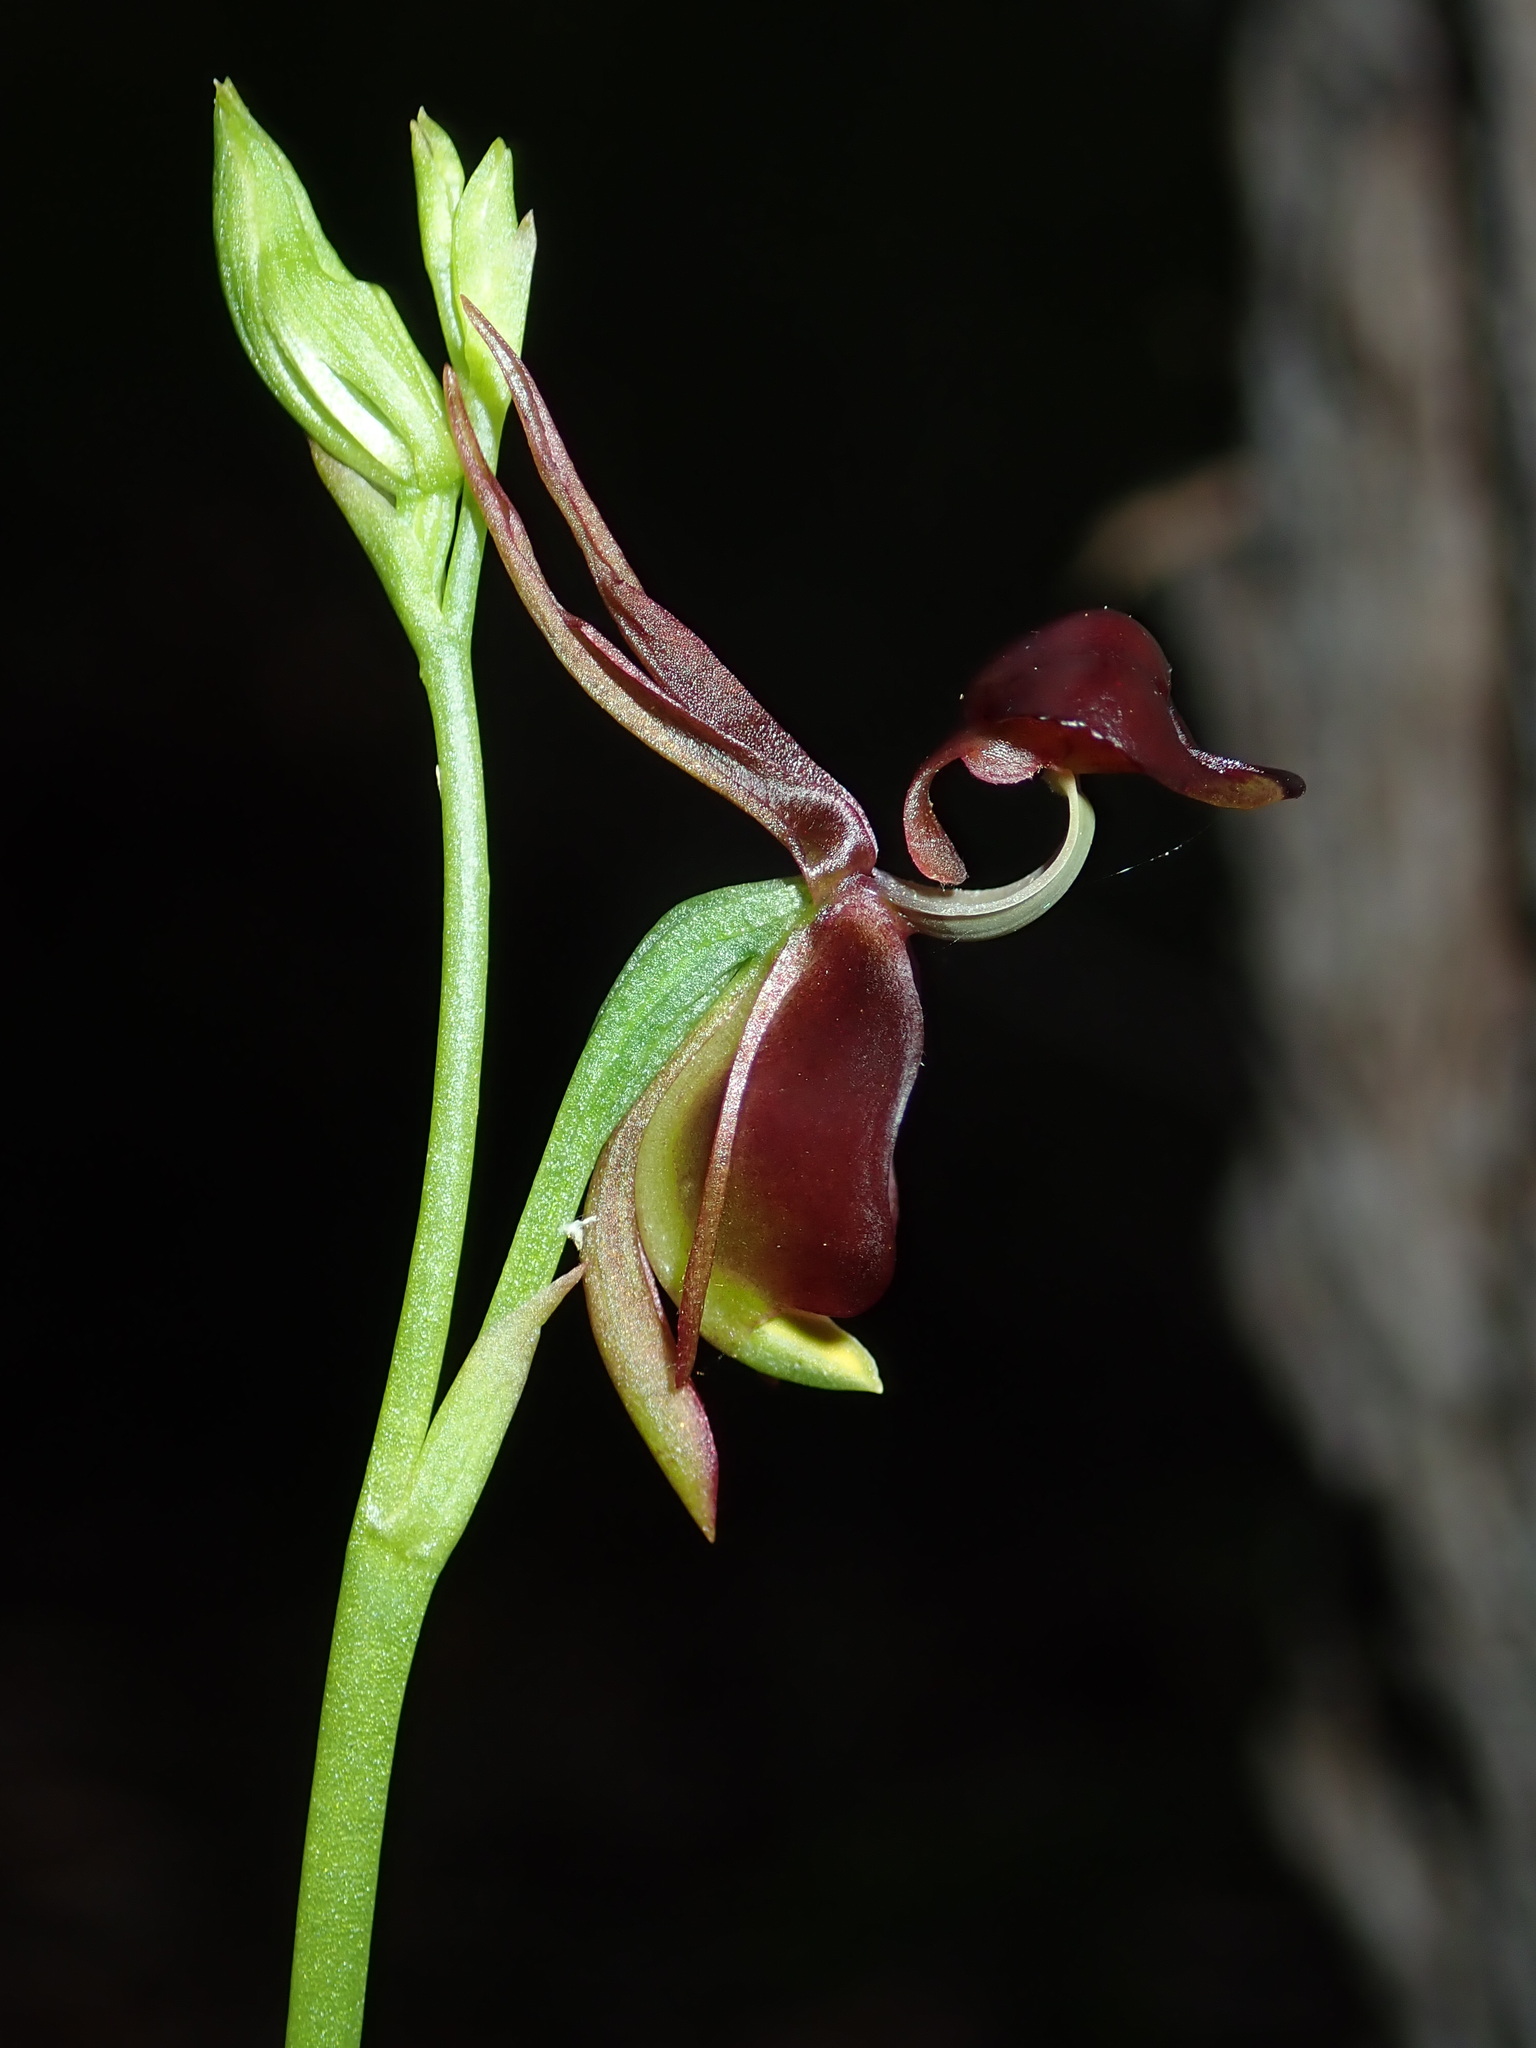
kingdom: Plantae
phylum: Tracheophyta
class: Liliopsida
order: Asparagales
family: Orchidaceae
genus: Caleana
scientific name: Caleana major
